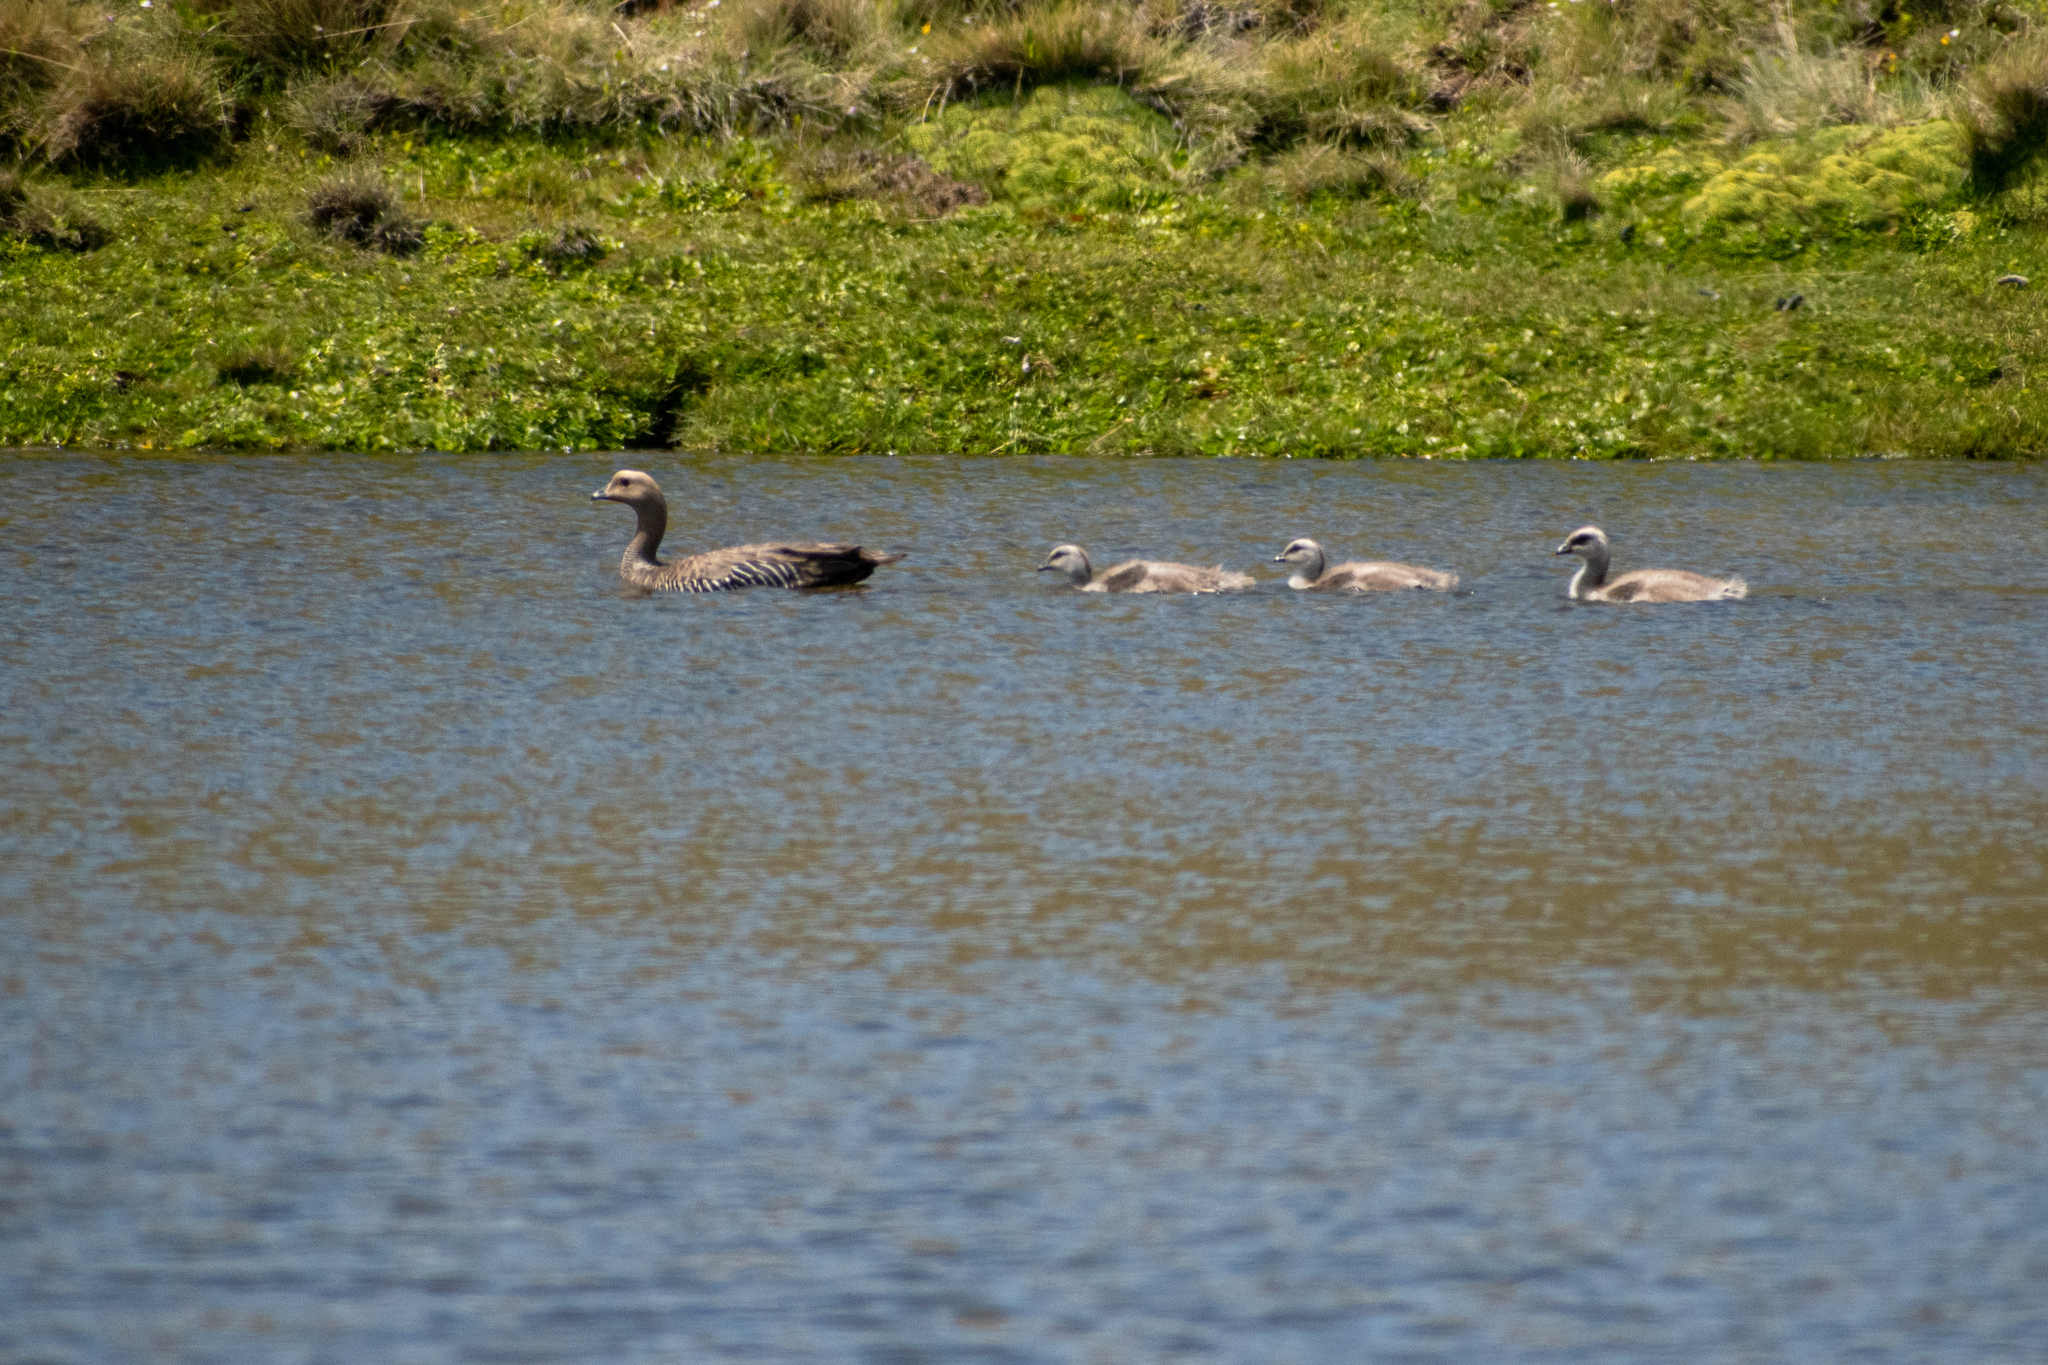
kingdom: Animalia
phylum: Chordata
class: Aves
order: Anseriformes
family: Anatidae
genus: Chloephaga
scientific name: Chloephaga picta
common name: Upland goose
